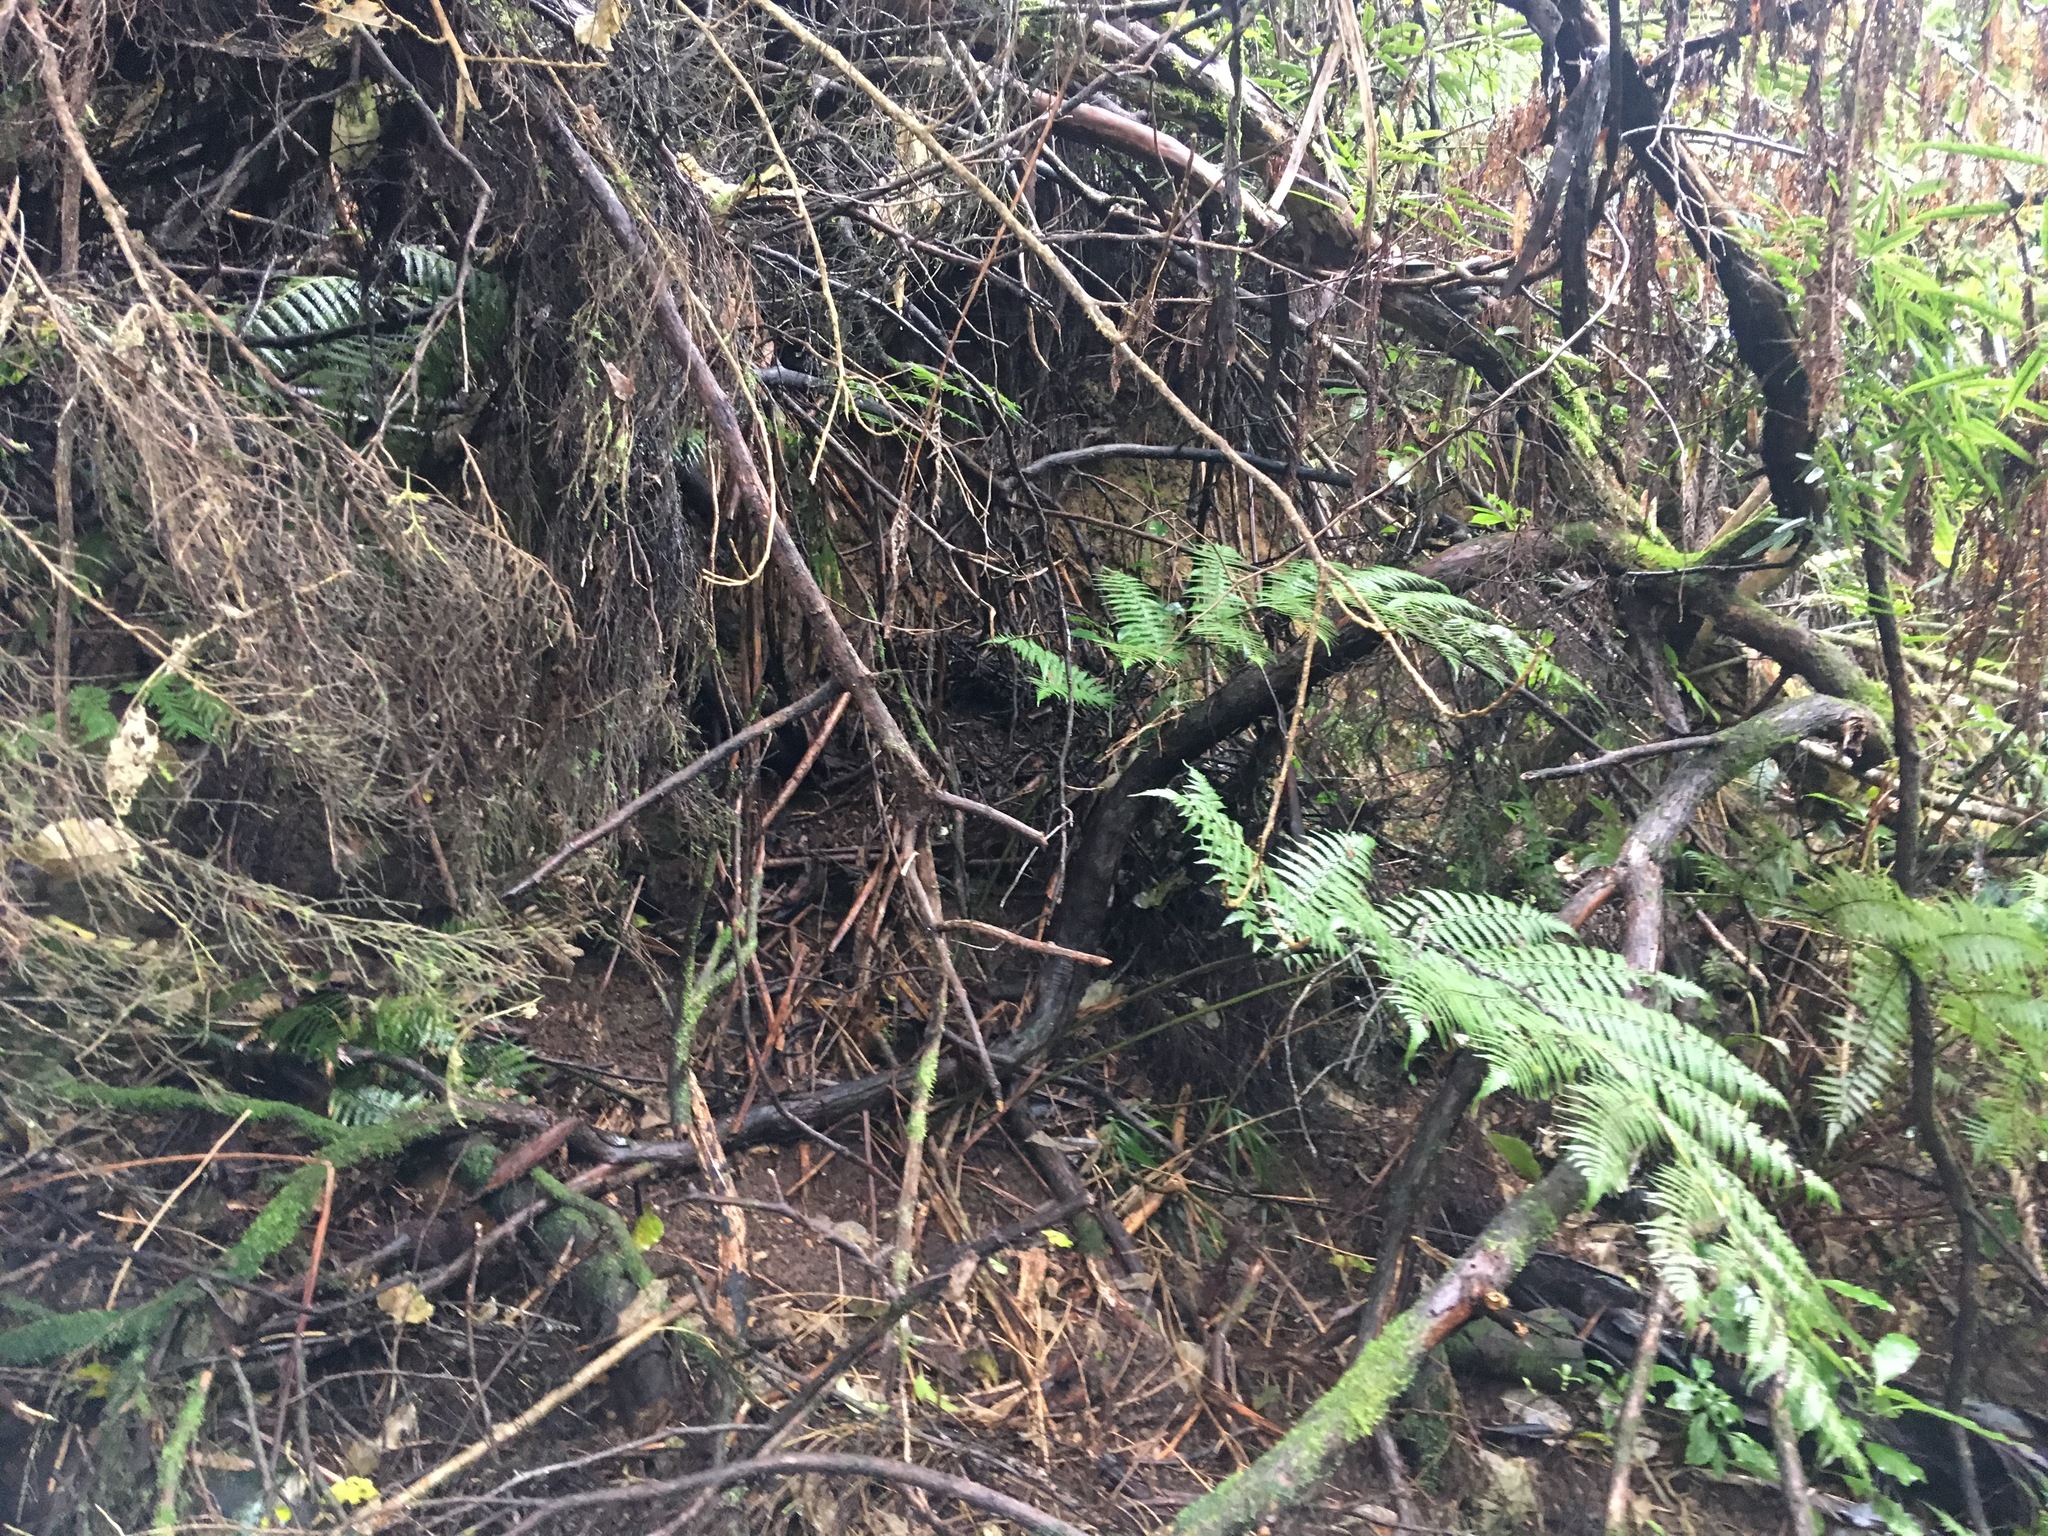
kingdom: Plantae
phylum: Tracheophyta
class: Polypodiopsida
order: Cyatheales
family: Cyatheaceae
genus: Alsophila
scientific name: Alsophila dealbata
